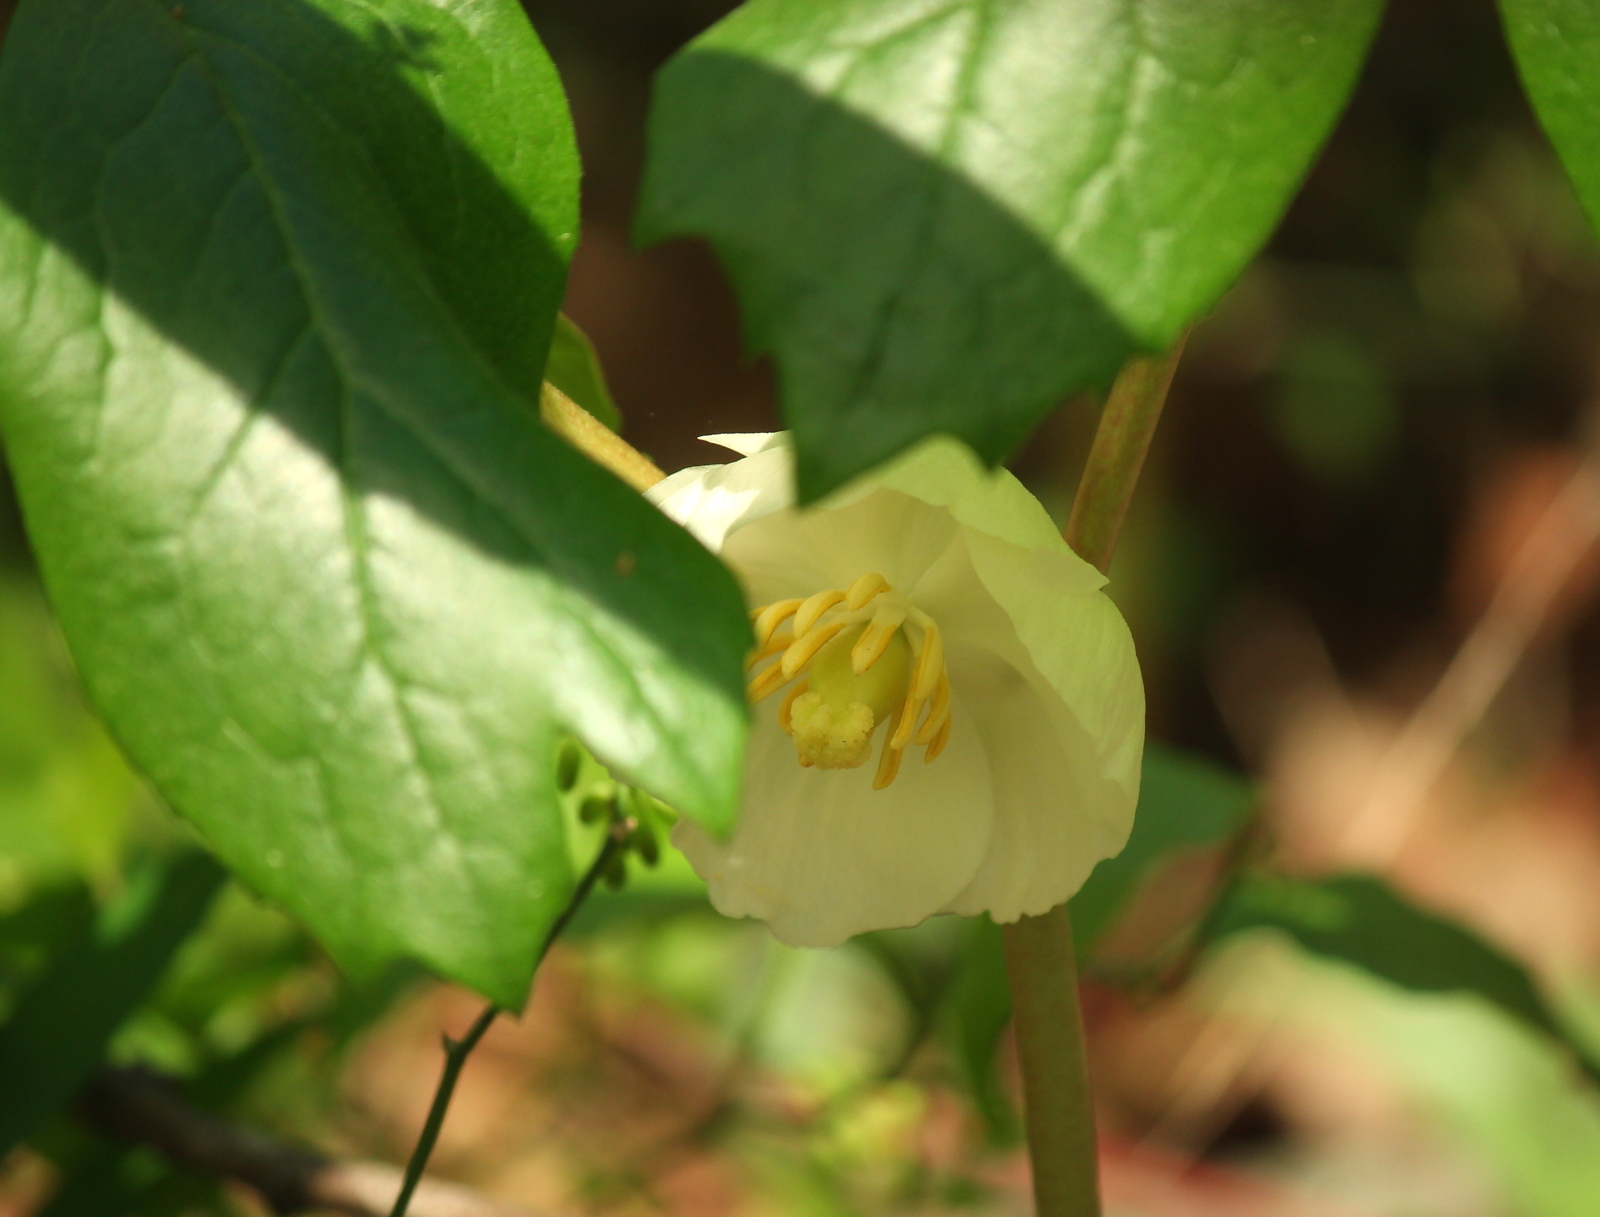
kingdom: Plantae
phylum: Tracheophyta
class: Magnoliopsida
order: Ranunculales
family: Berberidaceae
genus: Podophyllum
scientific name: Podophyllum peltatum
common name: Wild mandrake
